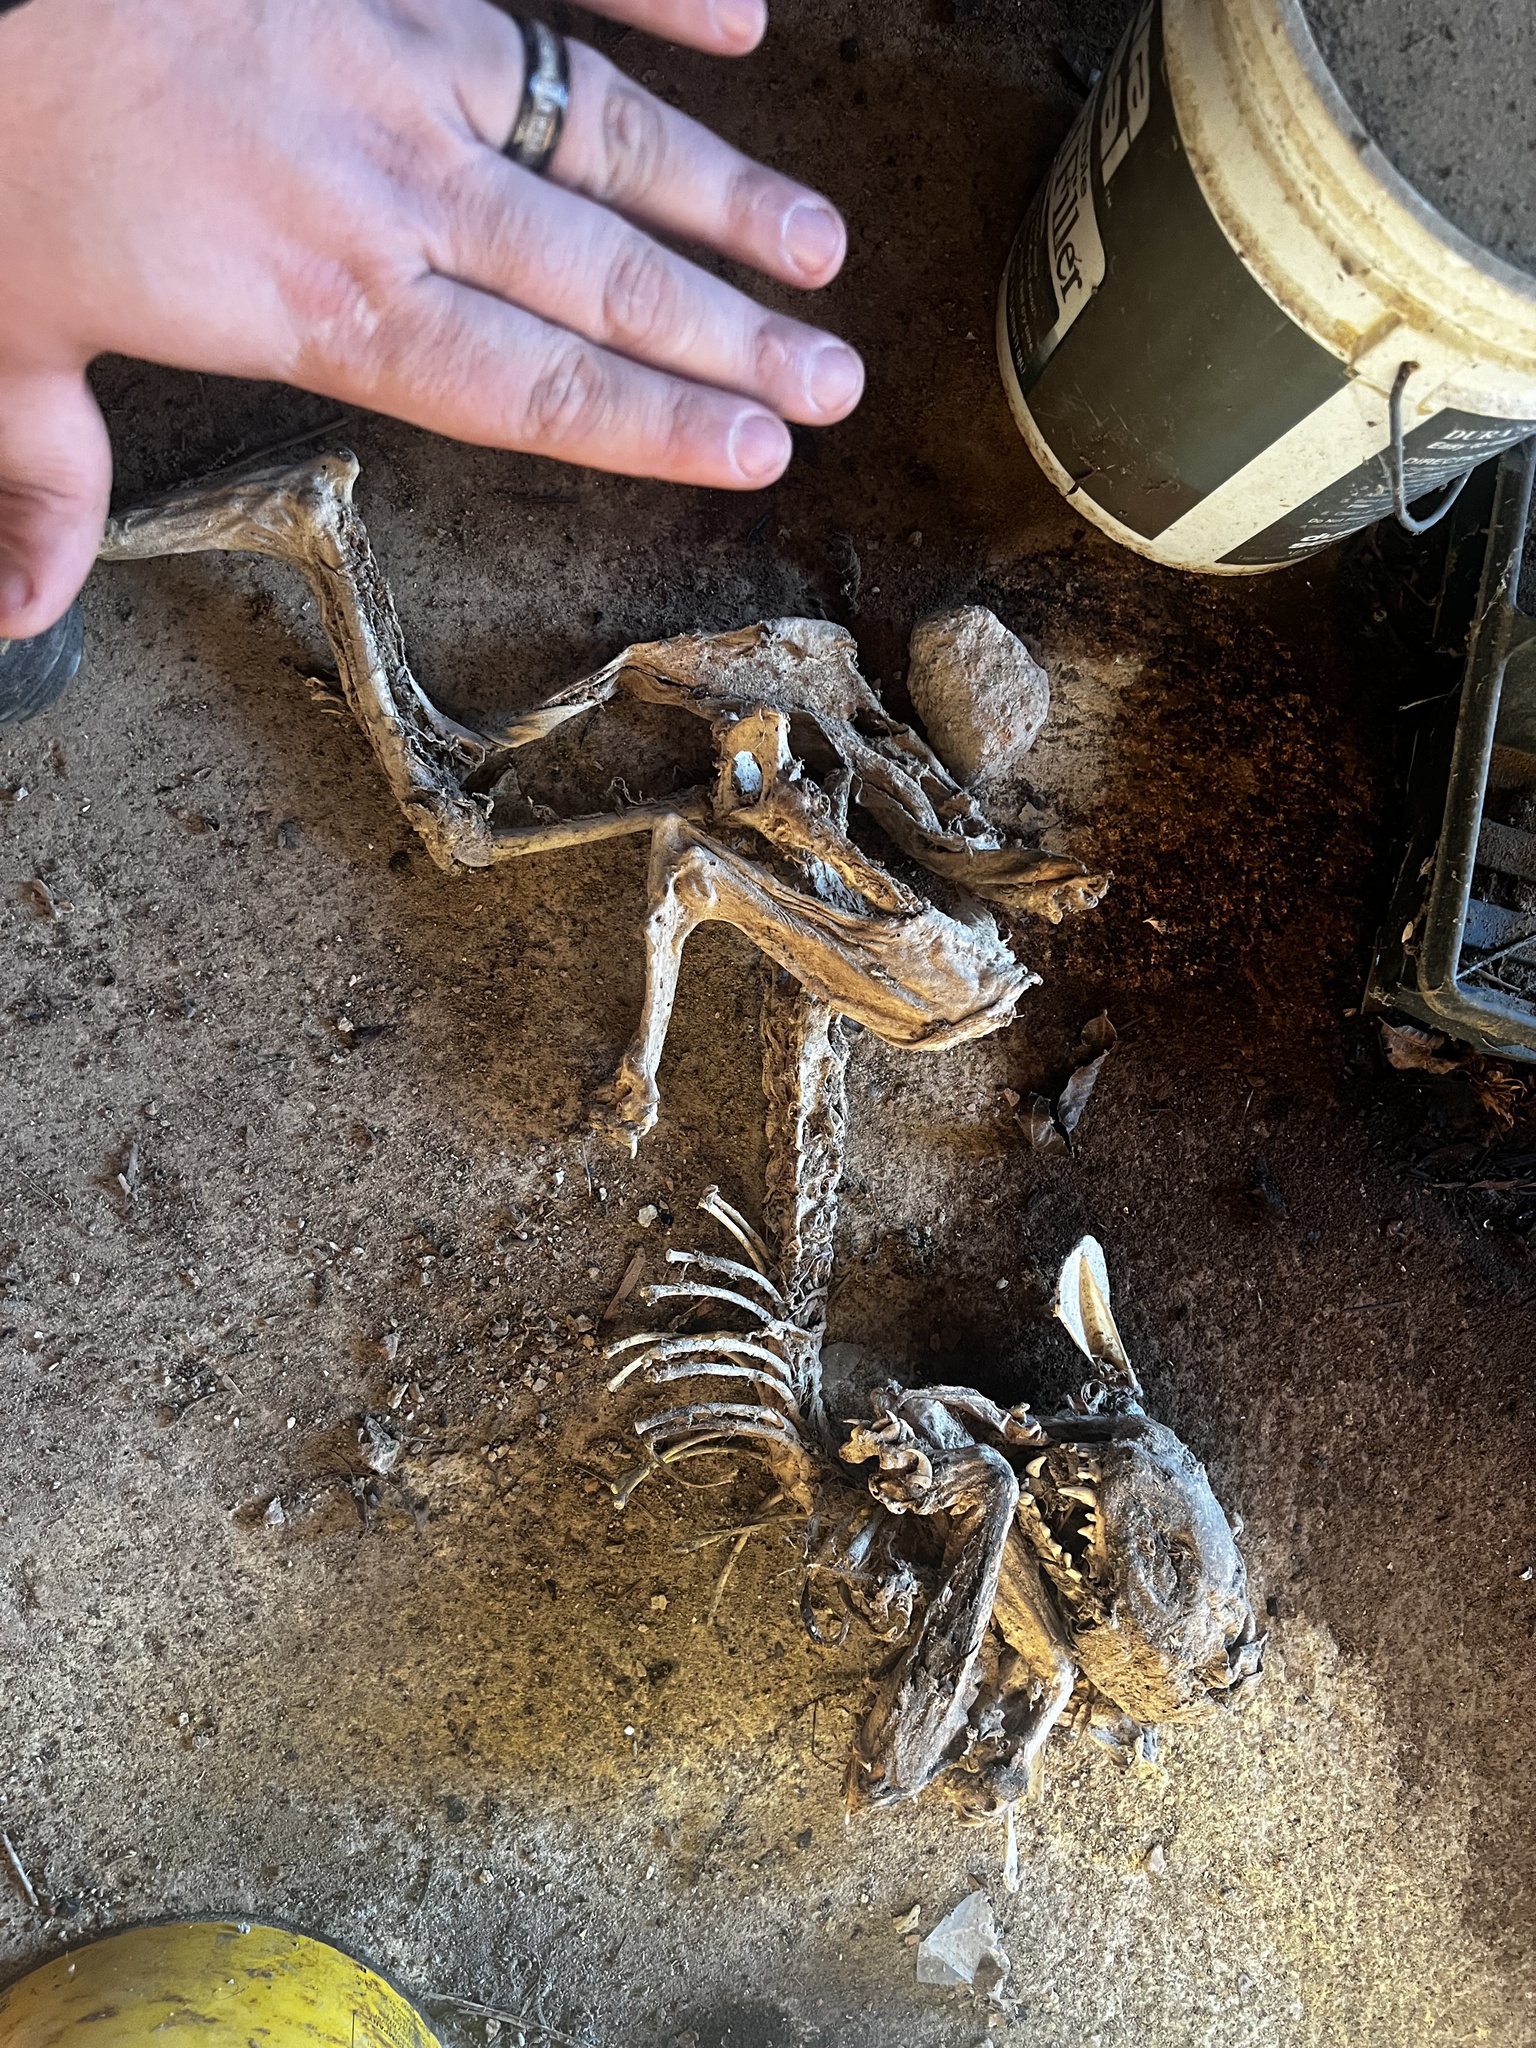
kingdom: Animalia
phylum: Chordata
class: Mammalia
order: Carnivora
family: Felidae
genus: Felis
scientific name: Felis catus
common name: Domestic cat
